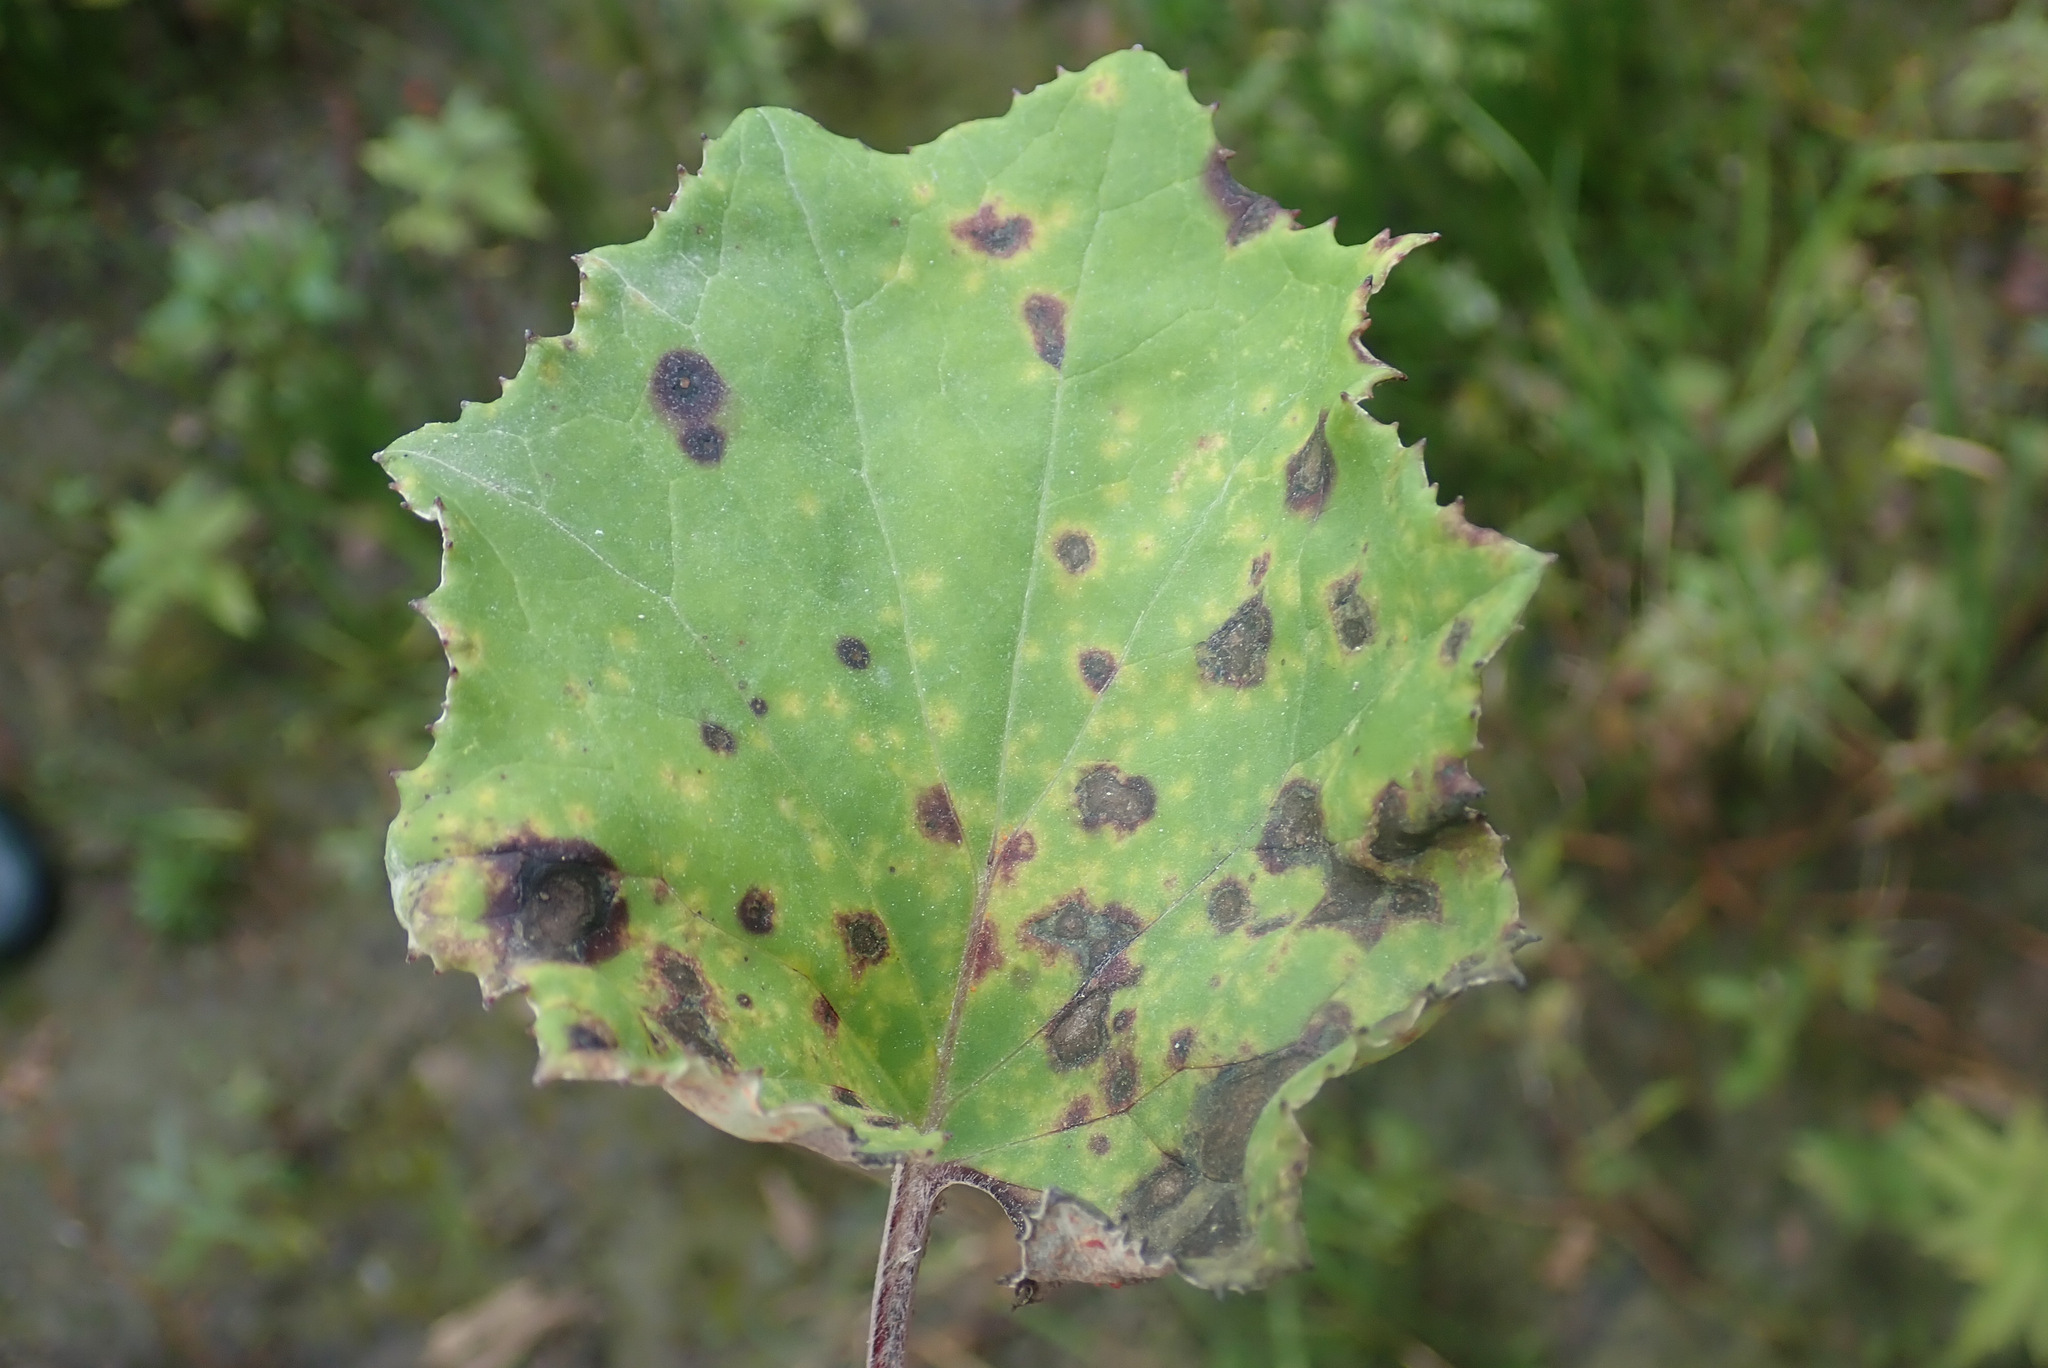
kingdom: Fungi
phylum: Basidiomycota
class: Pucciniomycetes
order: Pucciniales
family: Coleosporiaceae
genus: Coleosporium
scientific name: Coleosporium tussilaginis
